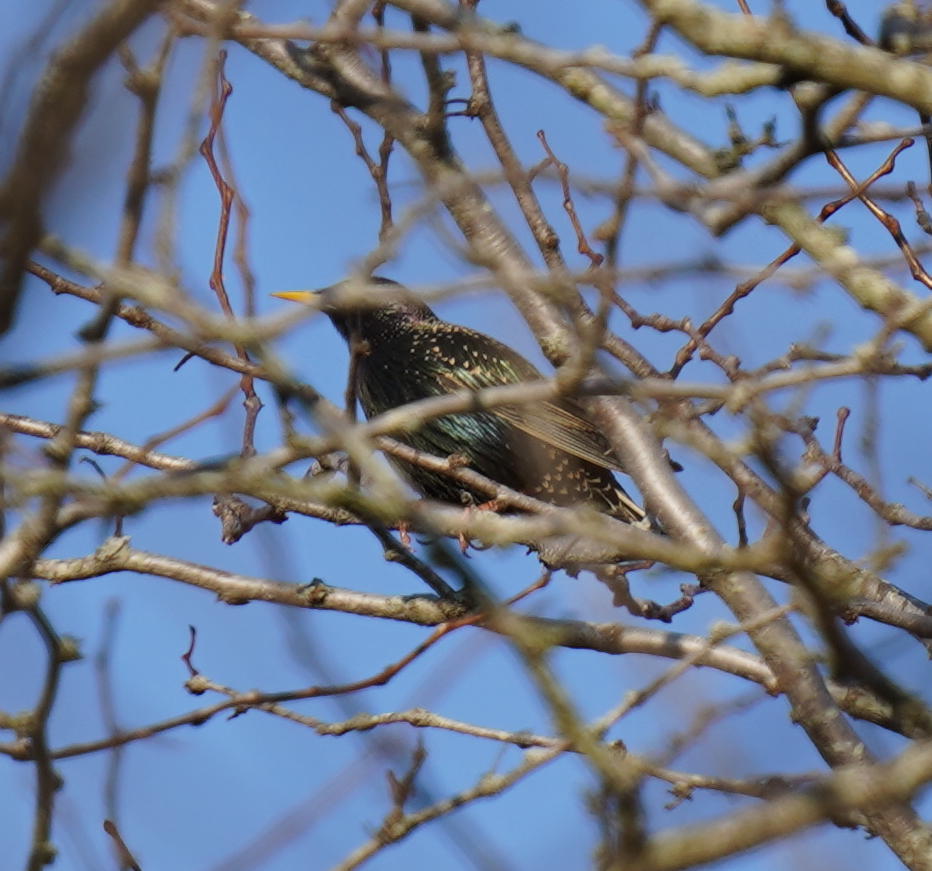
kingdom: Animalia
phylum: Chordata
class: Aves
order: Passeriformes
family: Sturnidae
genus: Sturnus
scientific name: Sturnus vulgaris
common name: Common starling
